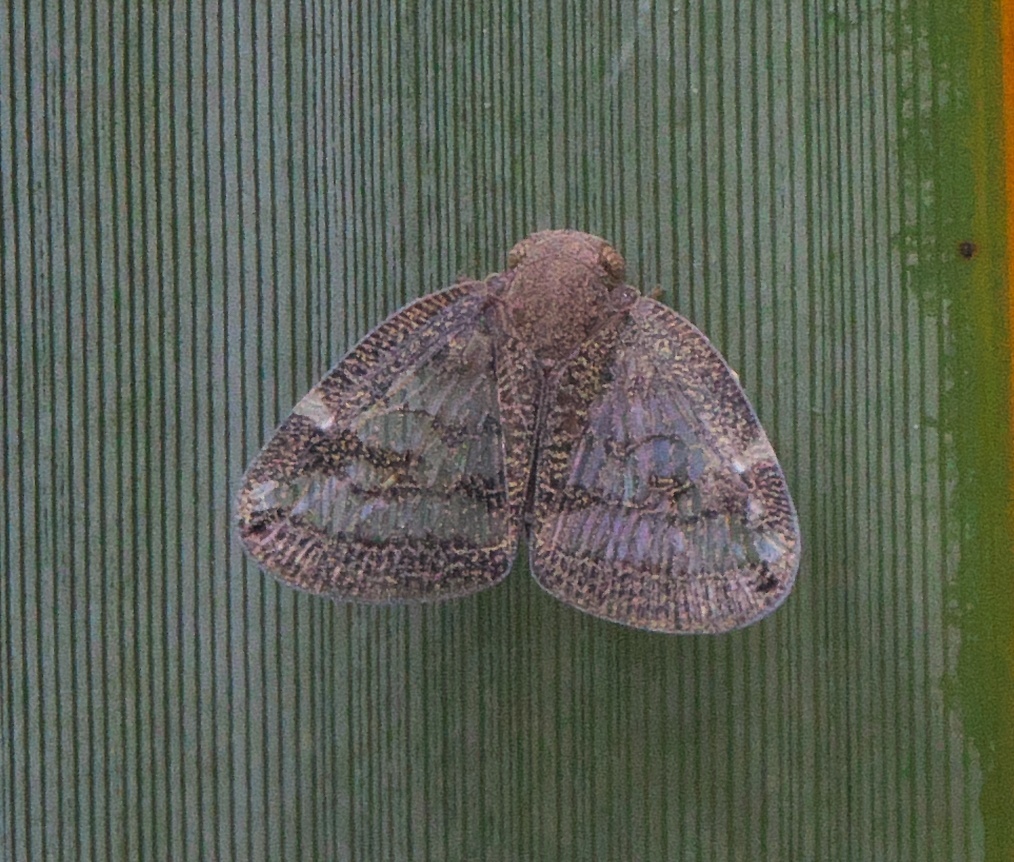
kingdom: Animalia
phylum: Arthropoda
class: Insecta
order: Hemiptera
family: Ricaniidae
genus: Scolypopa
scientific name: Scolypopa australis
